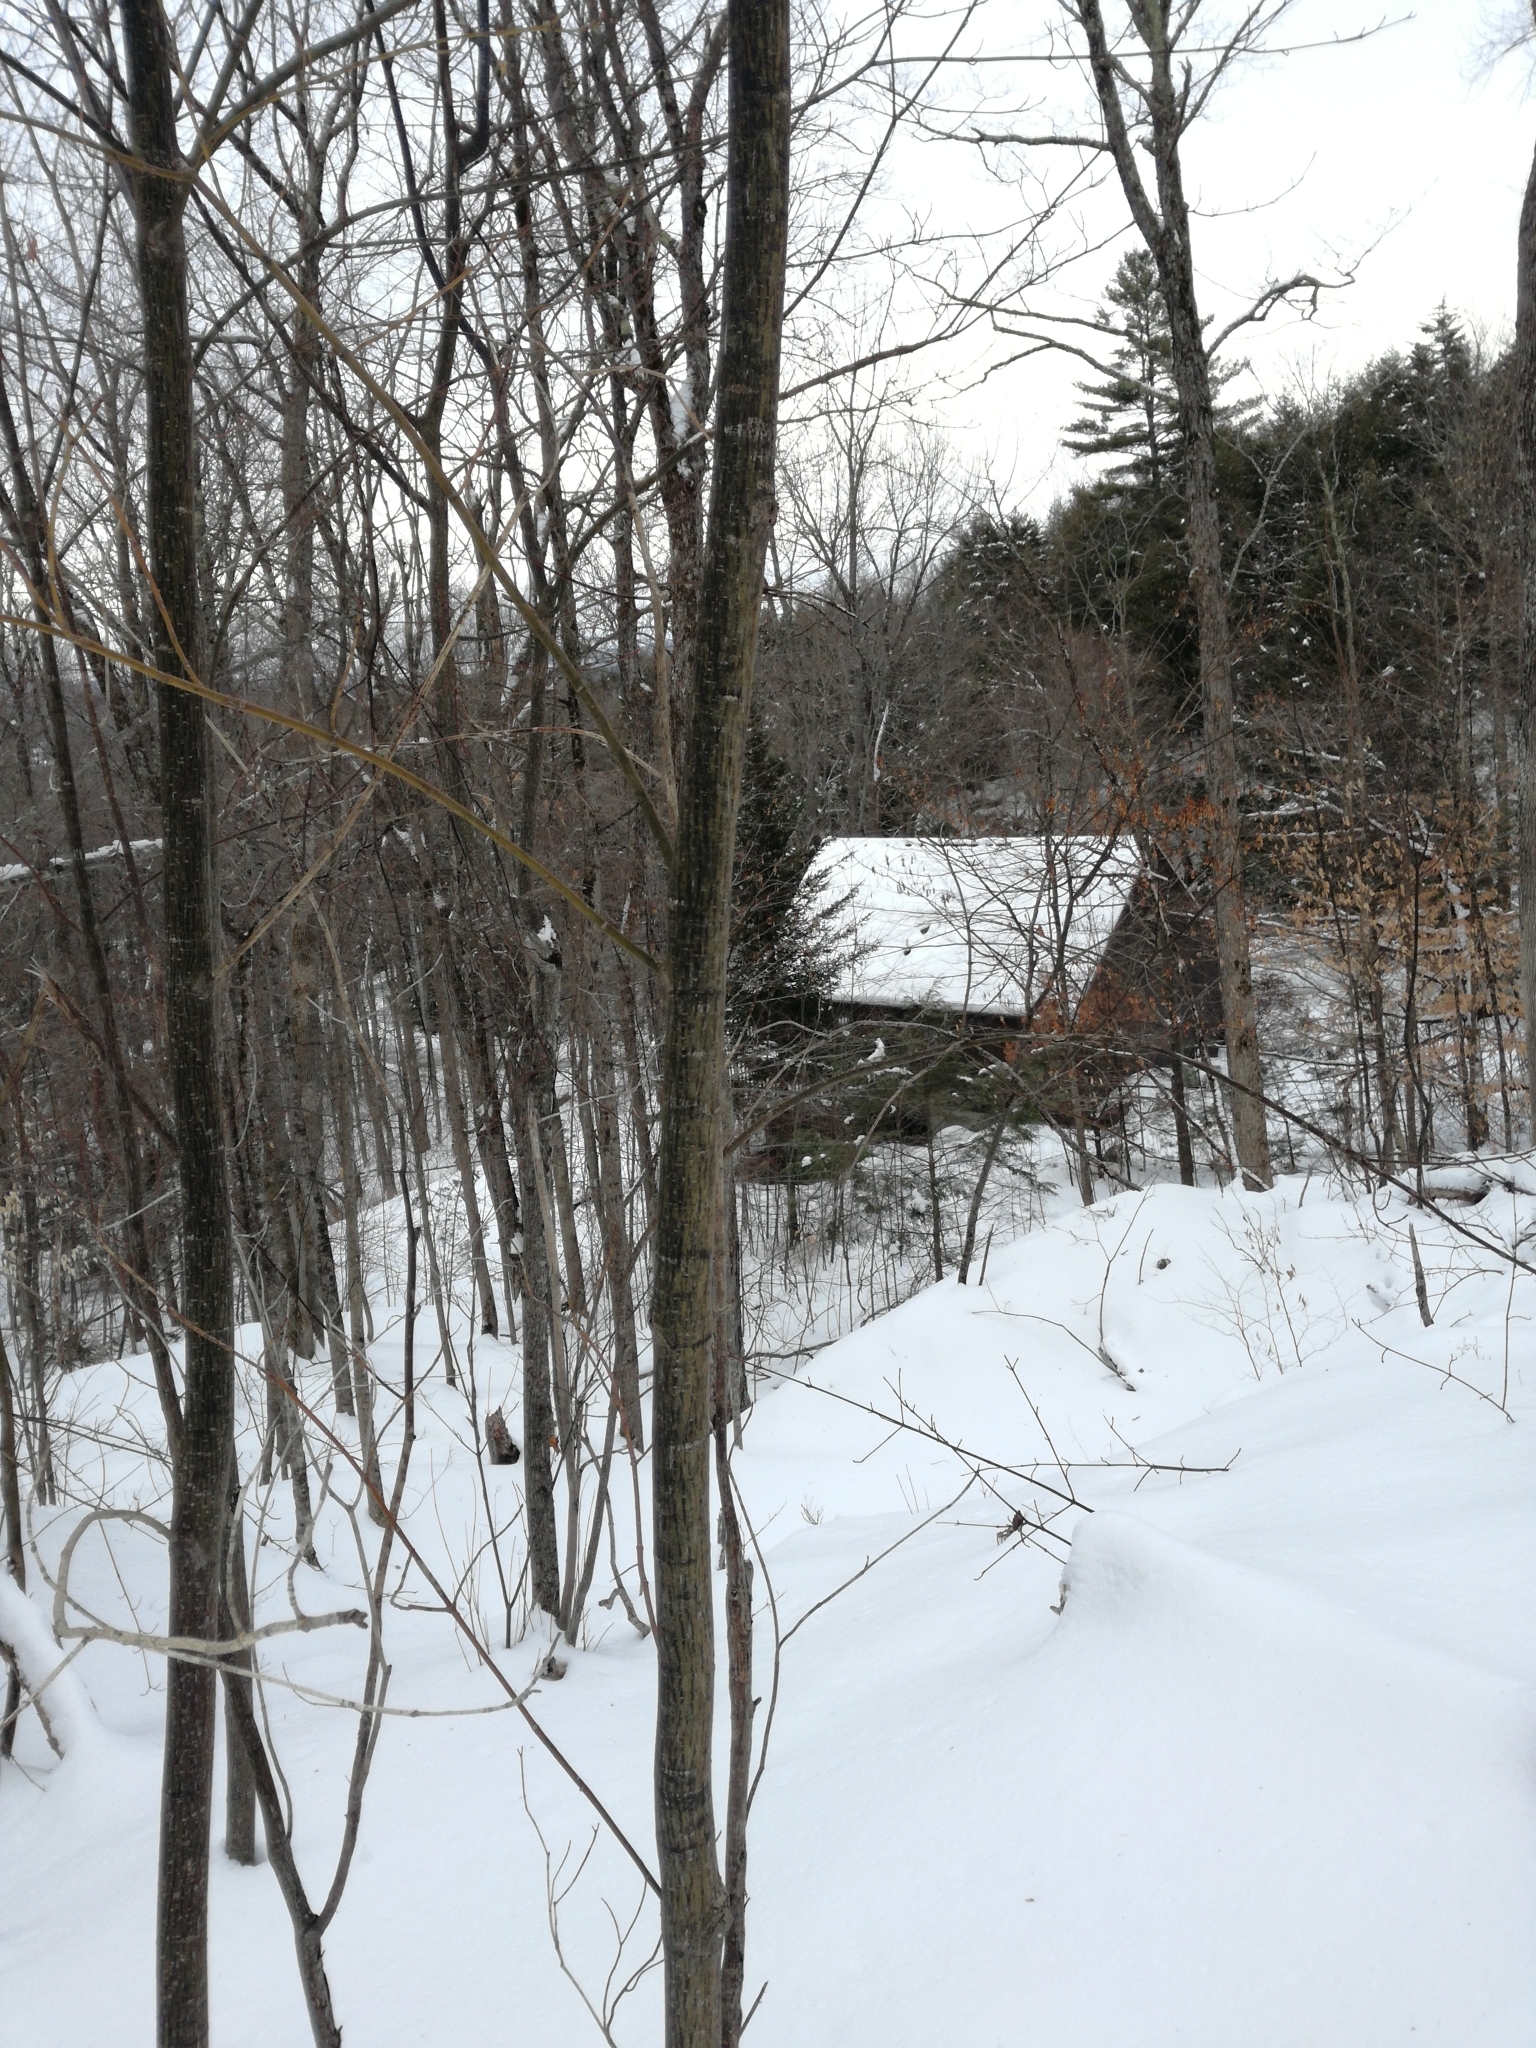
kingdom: Plantae
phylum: Tracheophyta
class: Magnoliopsida
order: Sapindales
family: Sapindaceae
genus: Acer
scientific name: Acer pensylvanicum
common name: Moosewood
